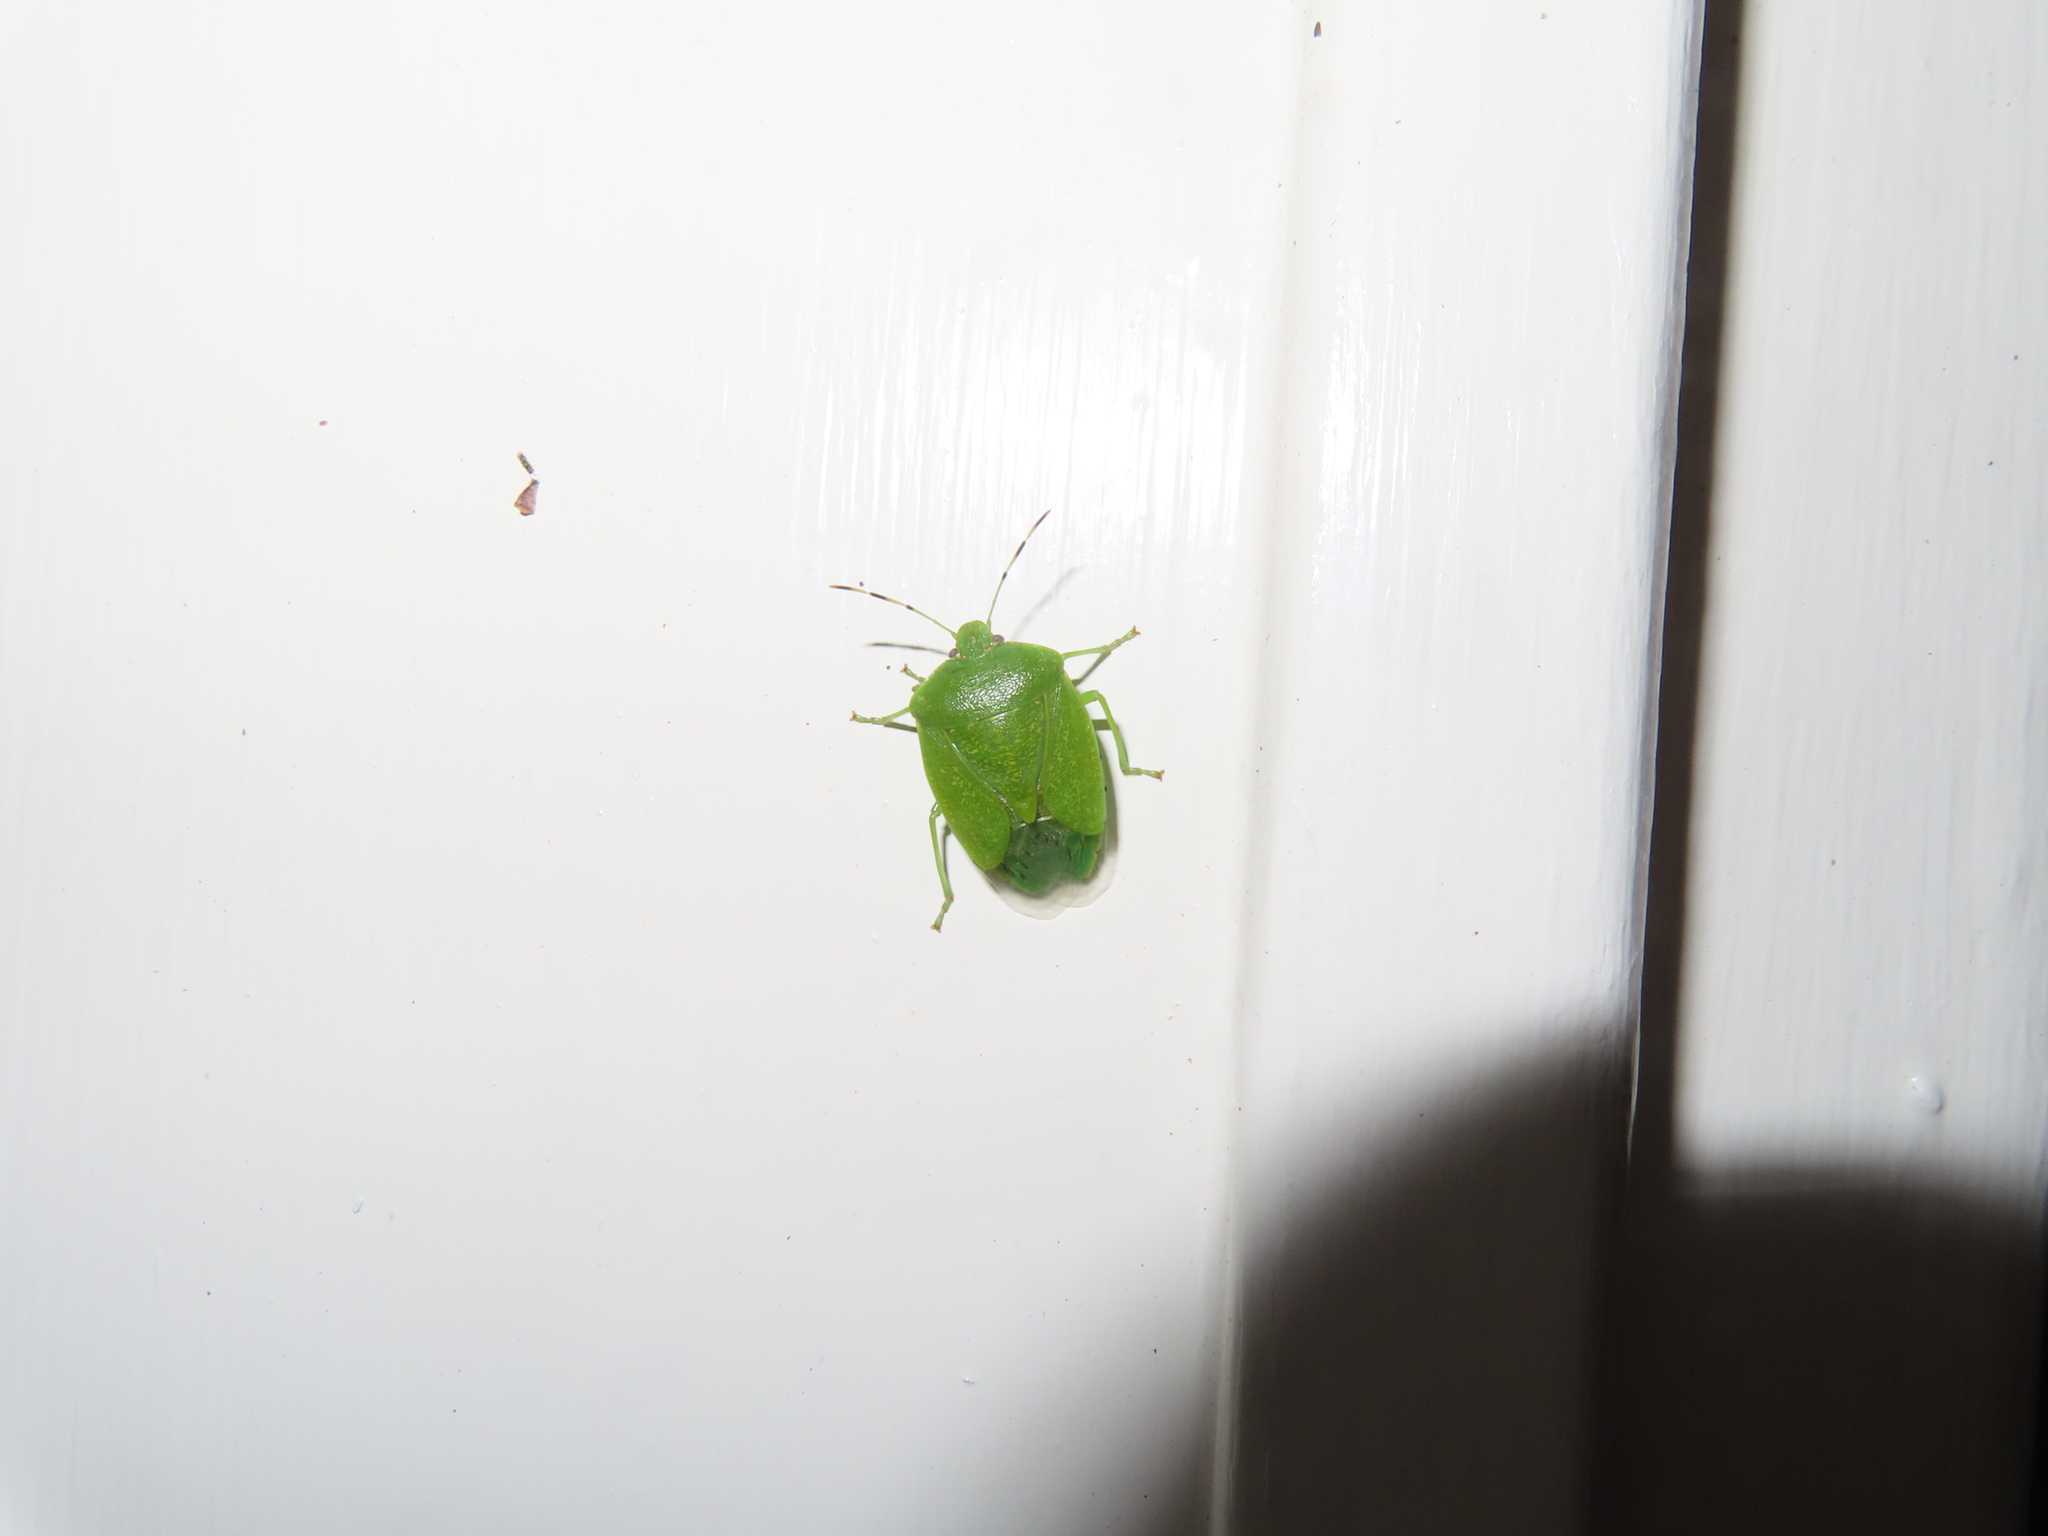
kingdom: Animalia
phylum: Arthropoda
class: Insecta
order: Hemiptera
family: Pentatomidae
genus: Chinavia
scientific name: Chinavia hilaris
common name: Green stink bug
